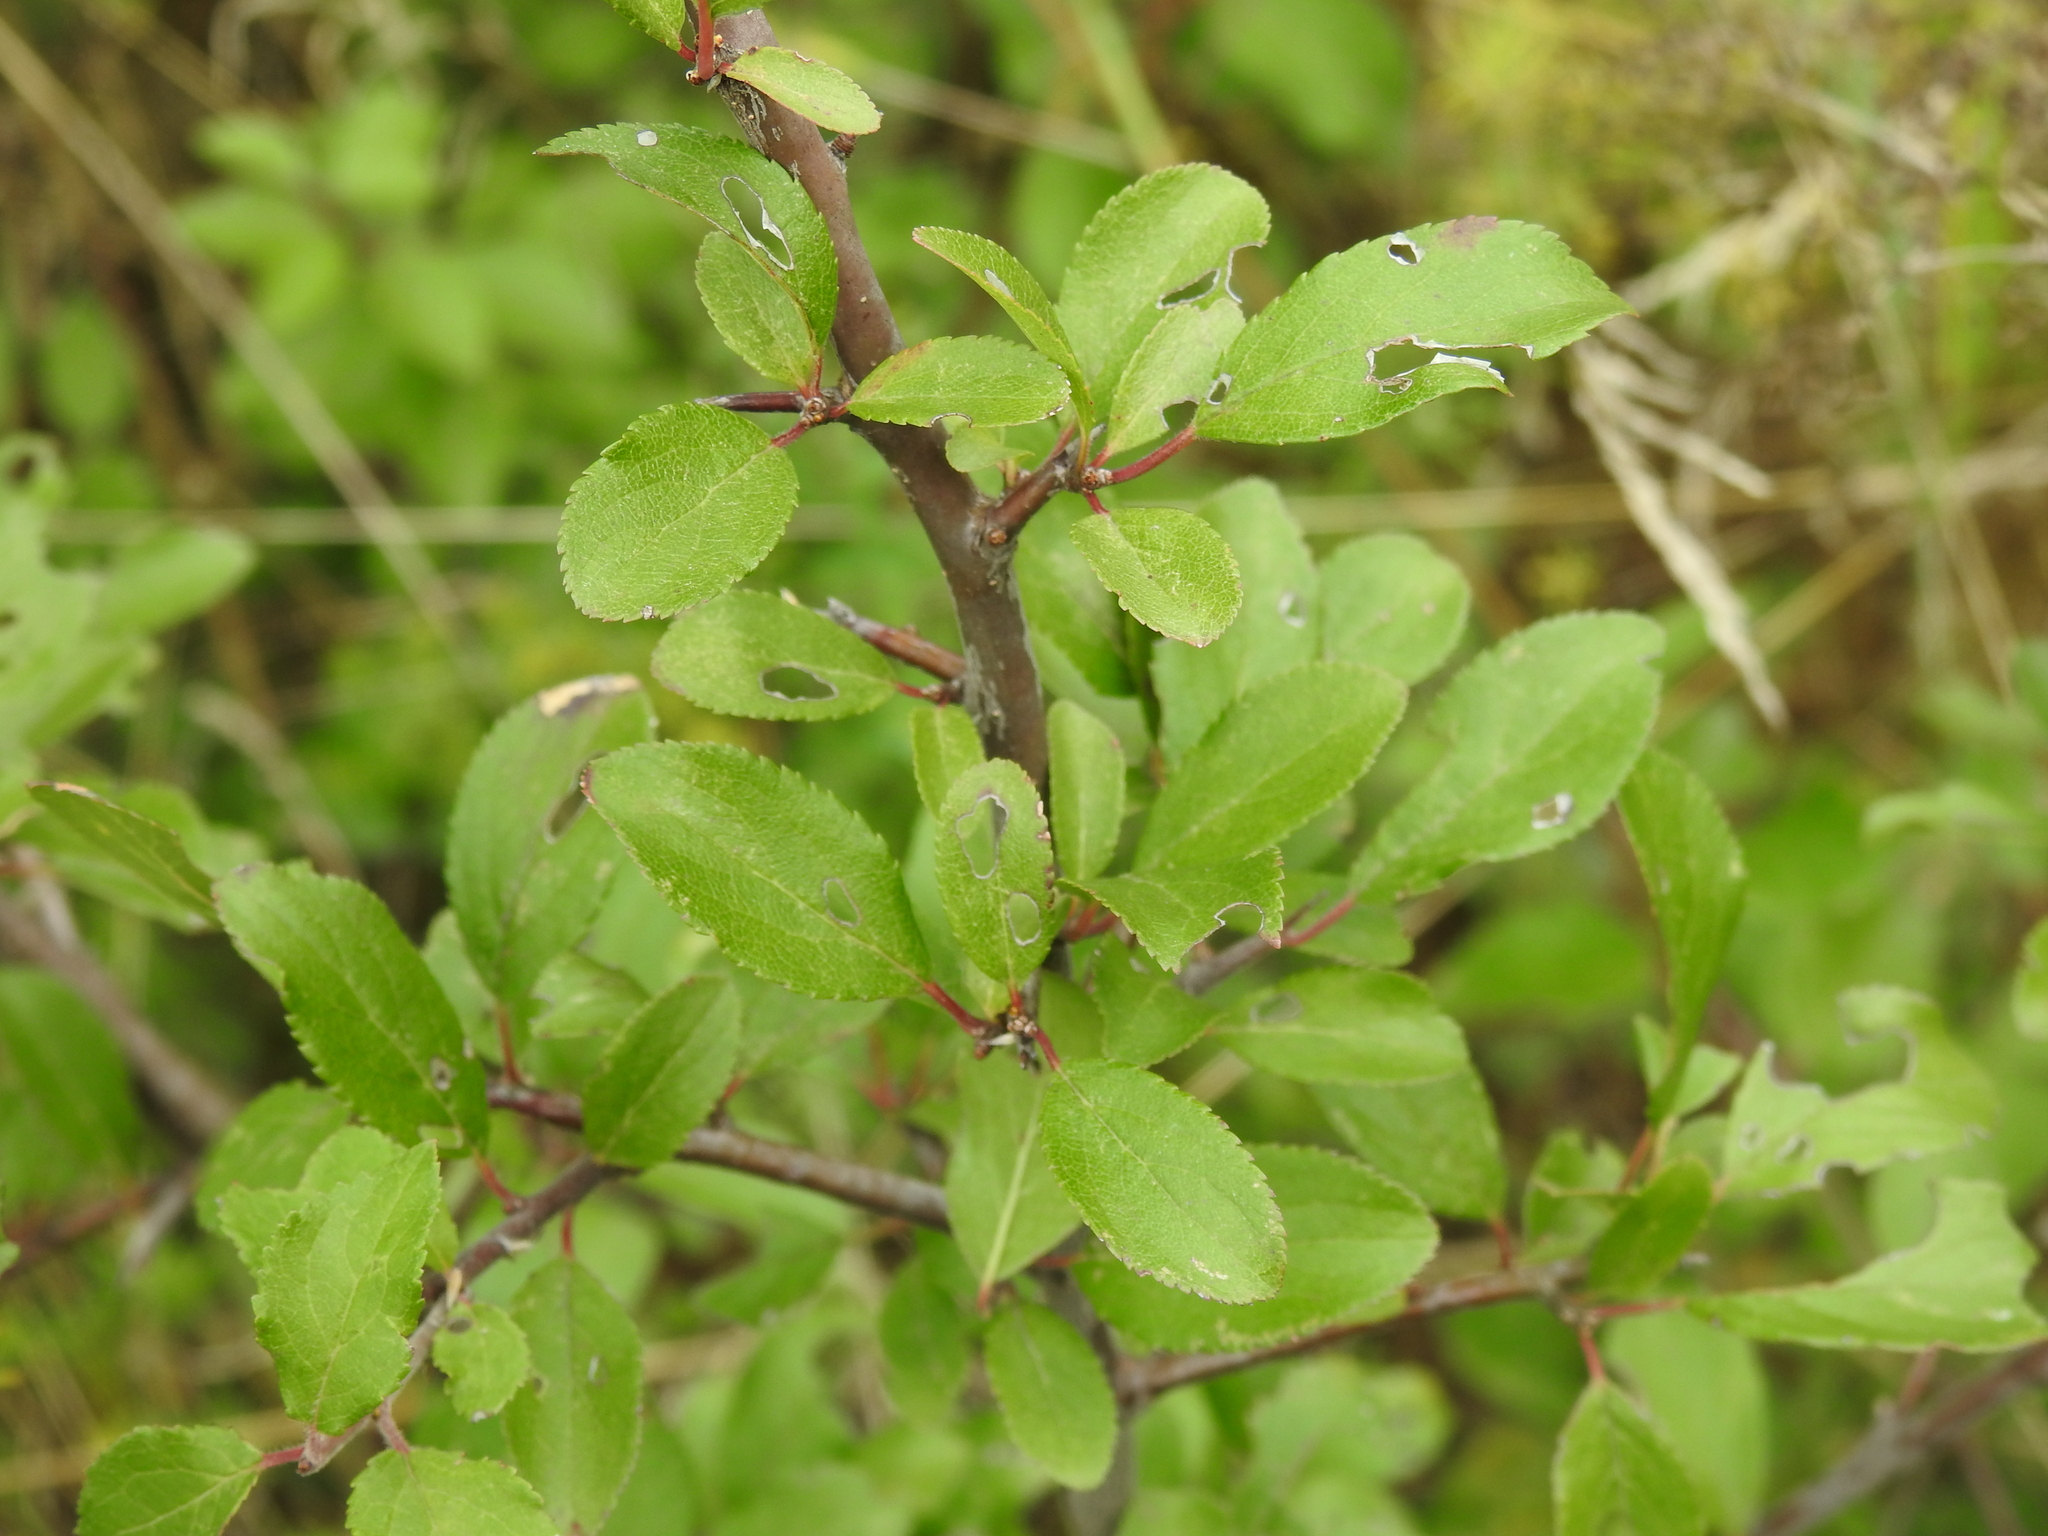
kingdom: Plantae
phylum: Tracheophyta
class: Magnoliopsida
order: Rosales
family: Rosaceae
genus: Prunus
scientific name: Prunus spinosa
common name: Blackthorn
